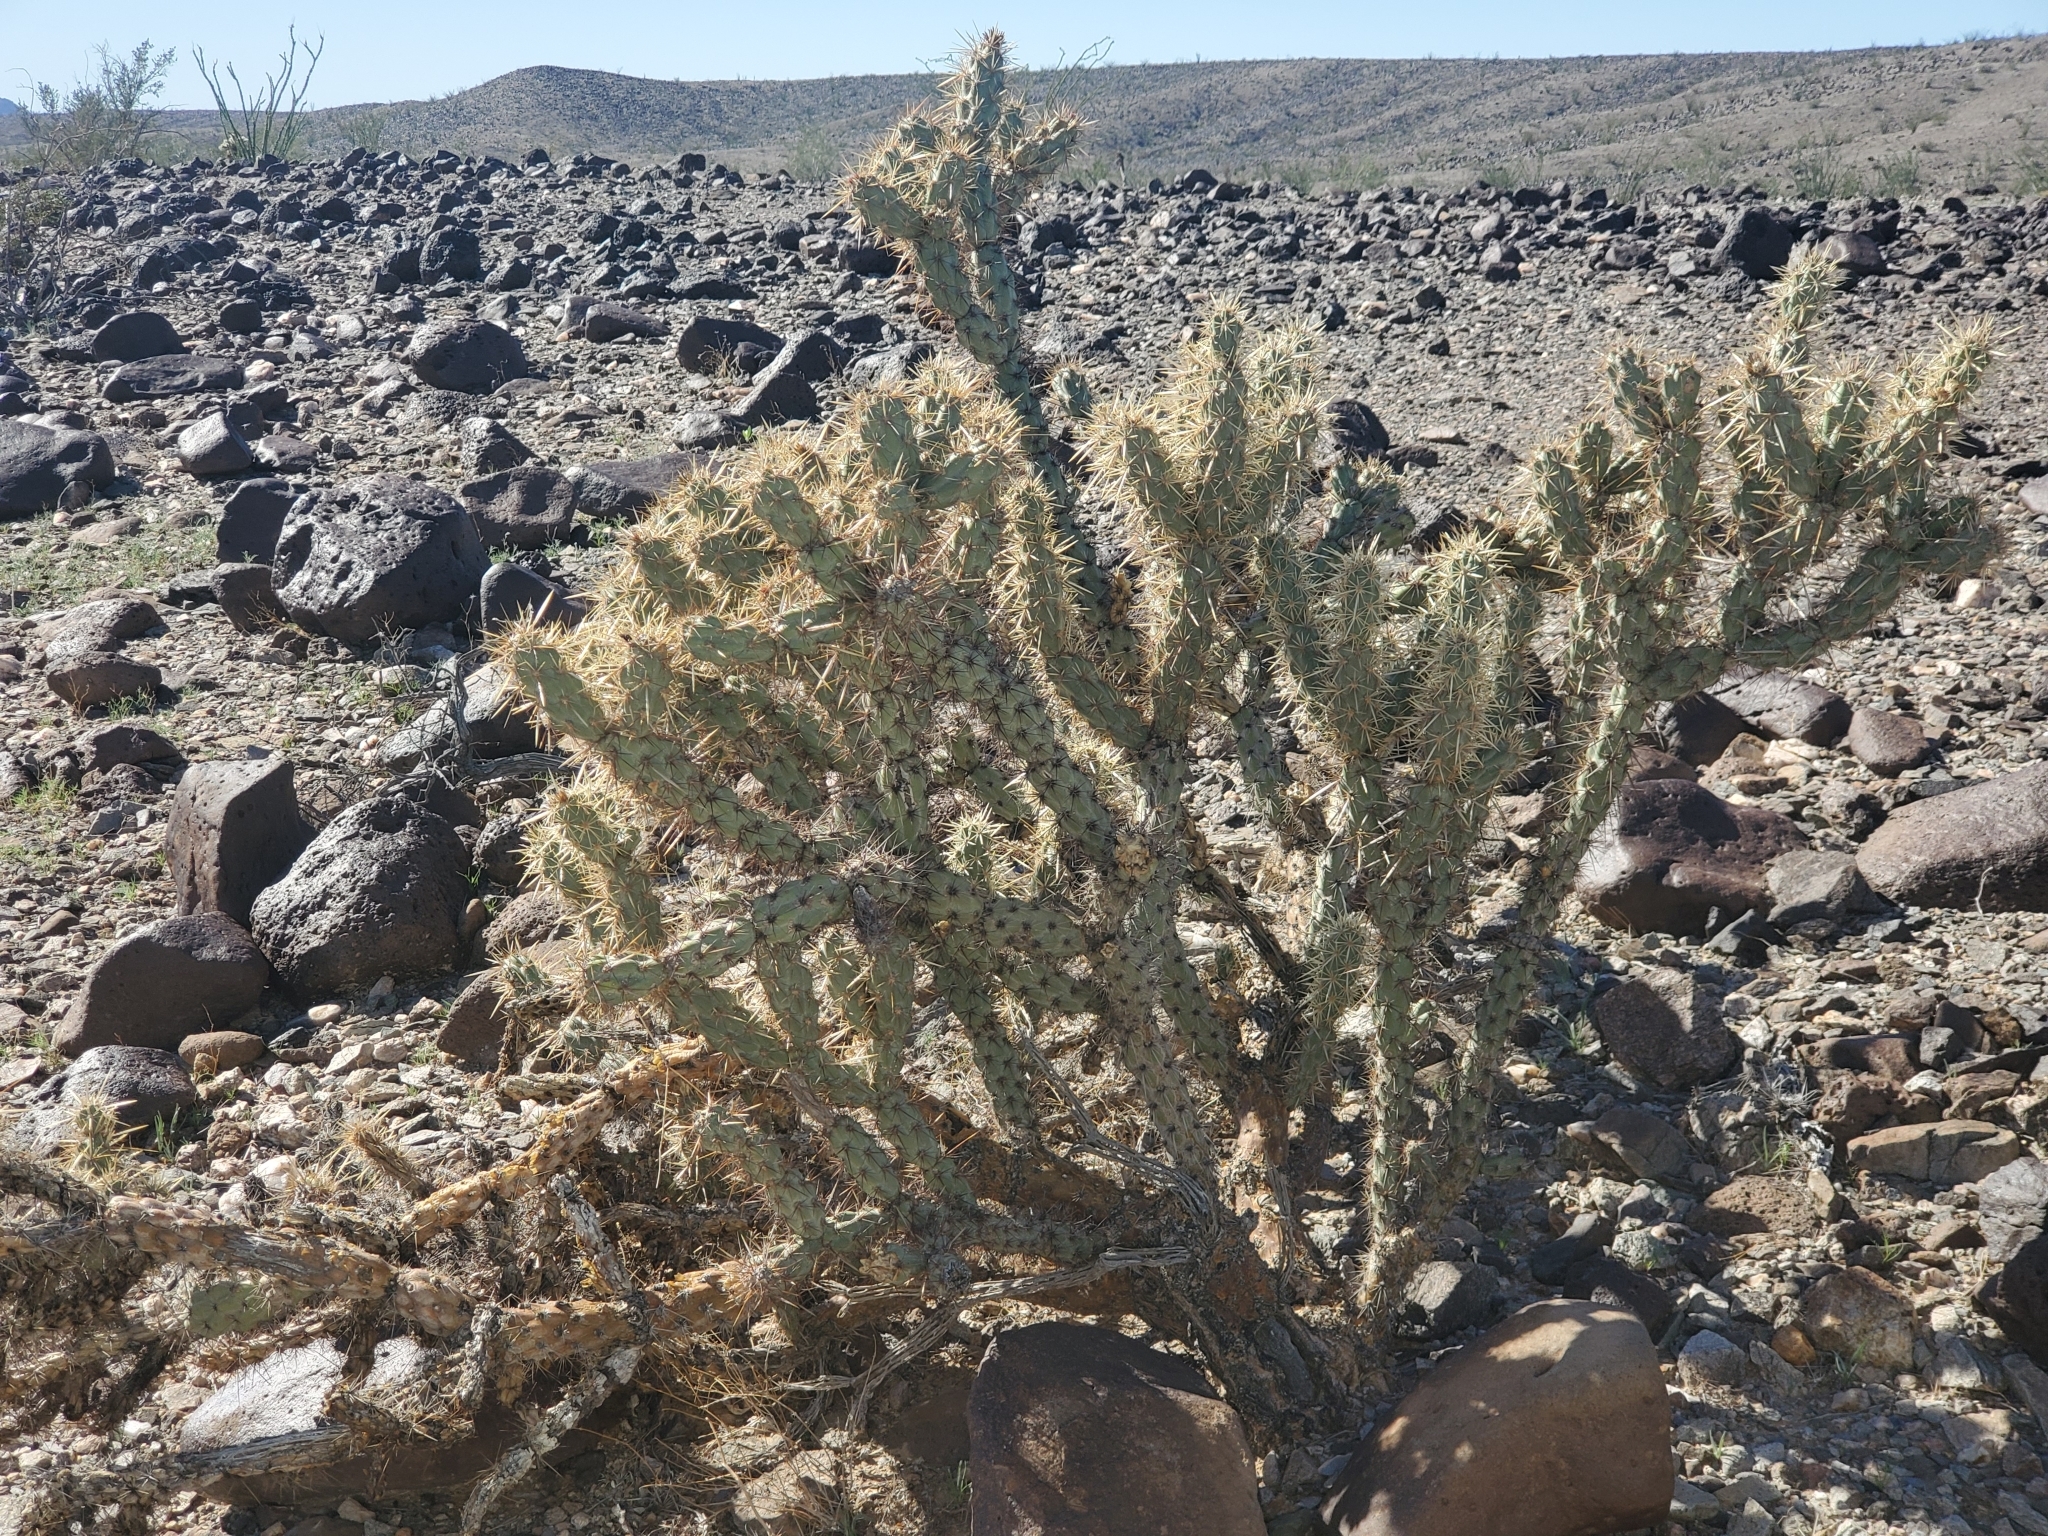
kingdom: Plantae
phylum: Tracheophyta
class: Magnoliopsida
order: Caryophyllales
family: Cactaceae
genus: Cylindropuntia
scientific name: Cylindropuntia acanthocarpa
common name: Buckhorn cholla
